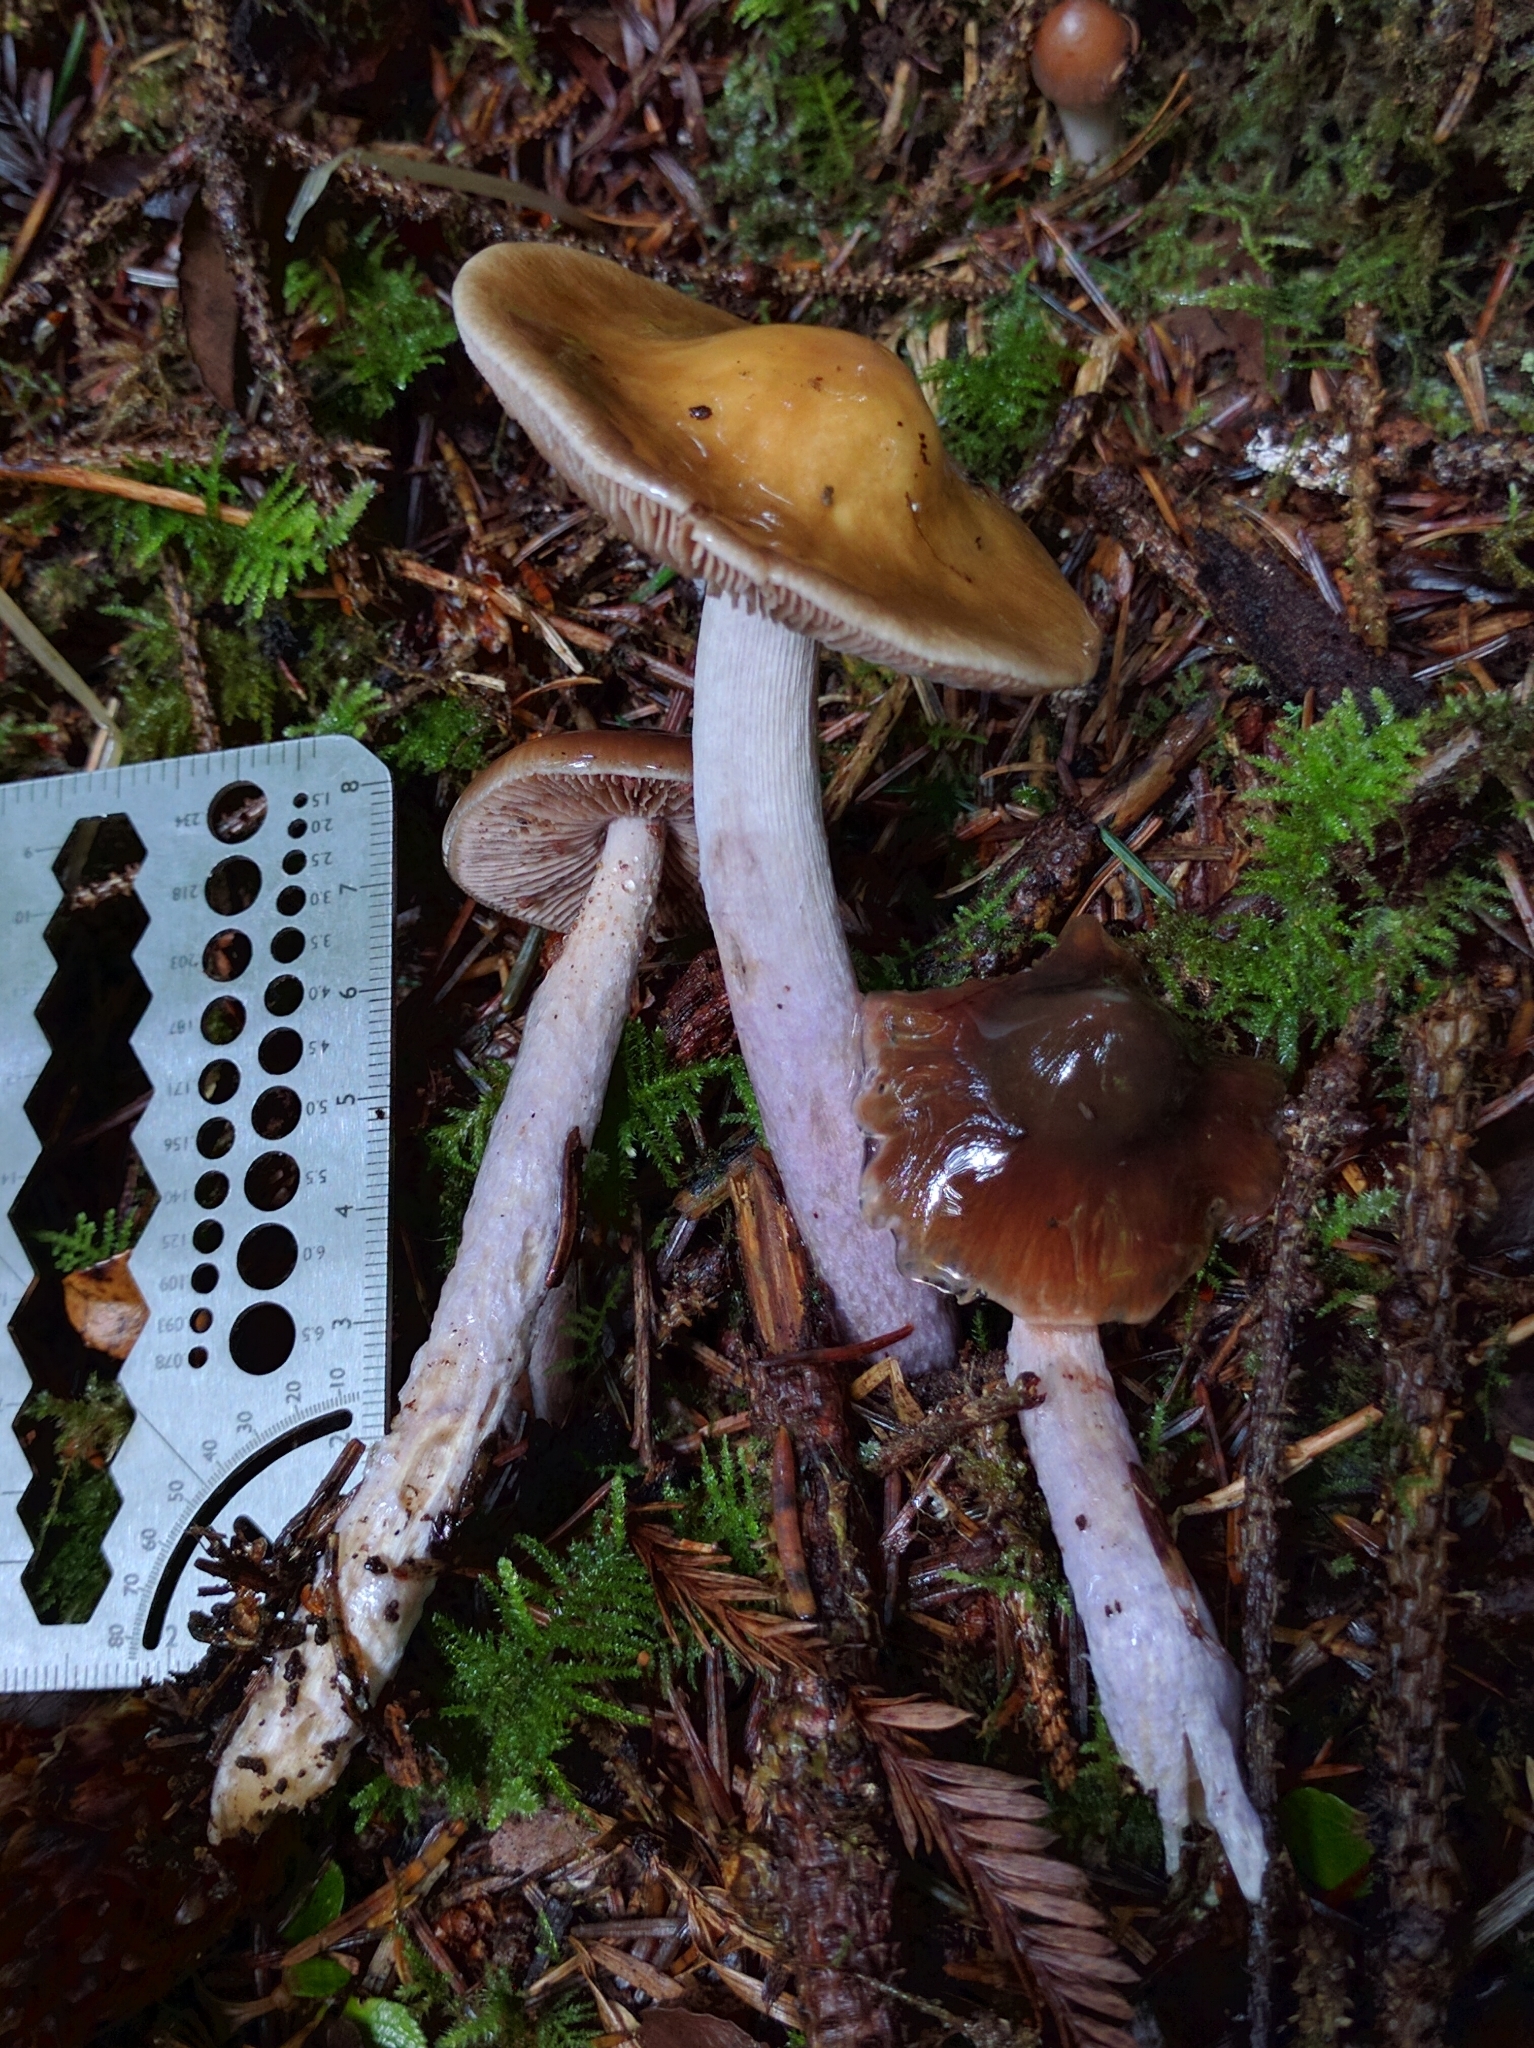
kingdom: Fungi
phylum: Basidiomycota
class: Agaricomycetes
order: Agaricales
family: Cortinariaceae
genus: Cortinarius
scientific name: Cortinarius vanduzerensis
